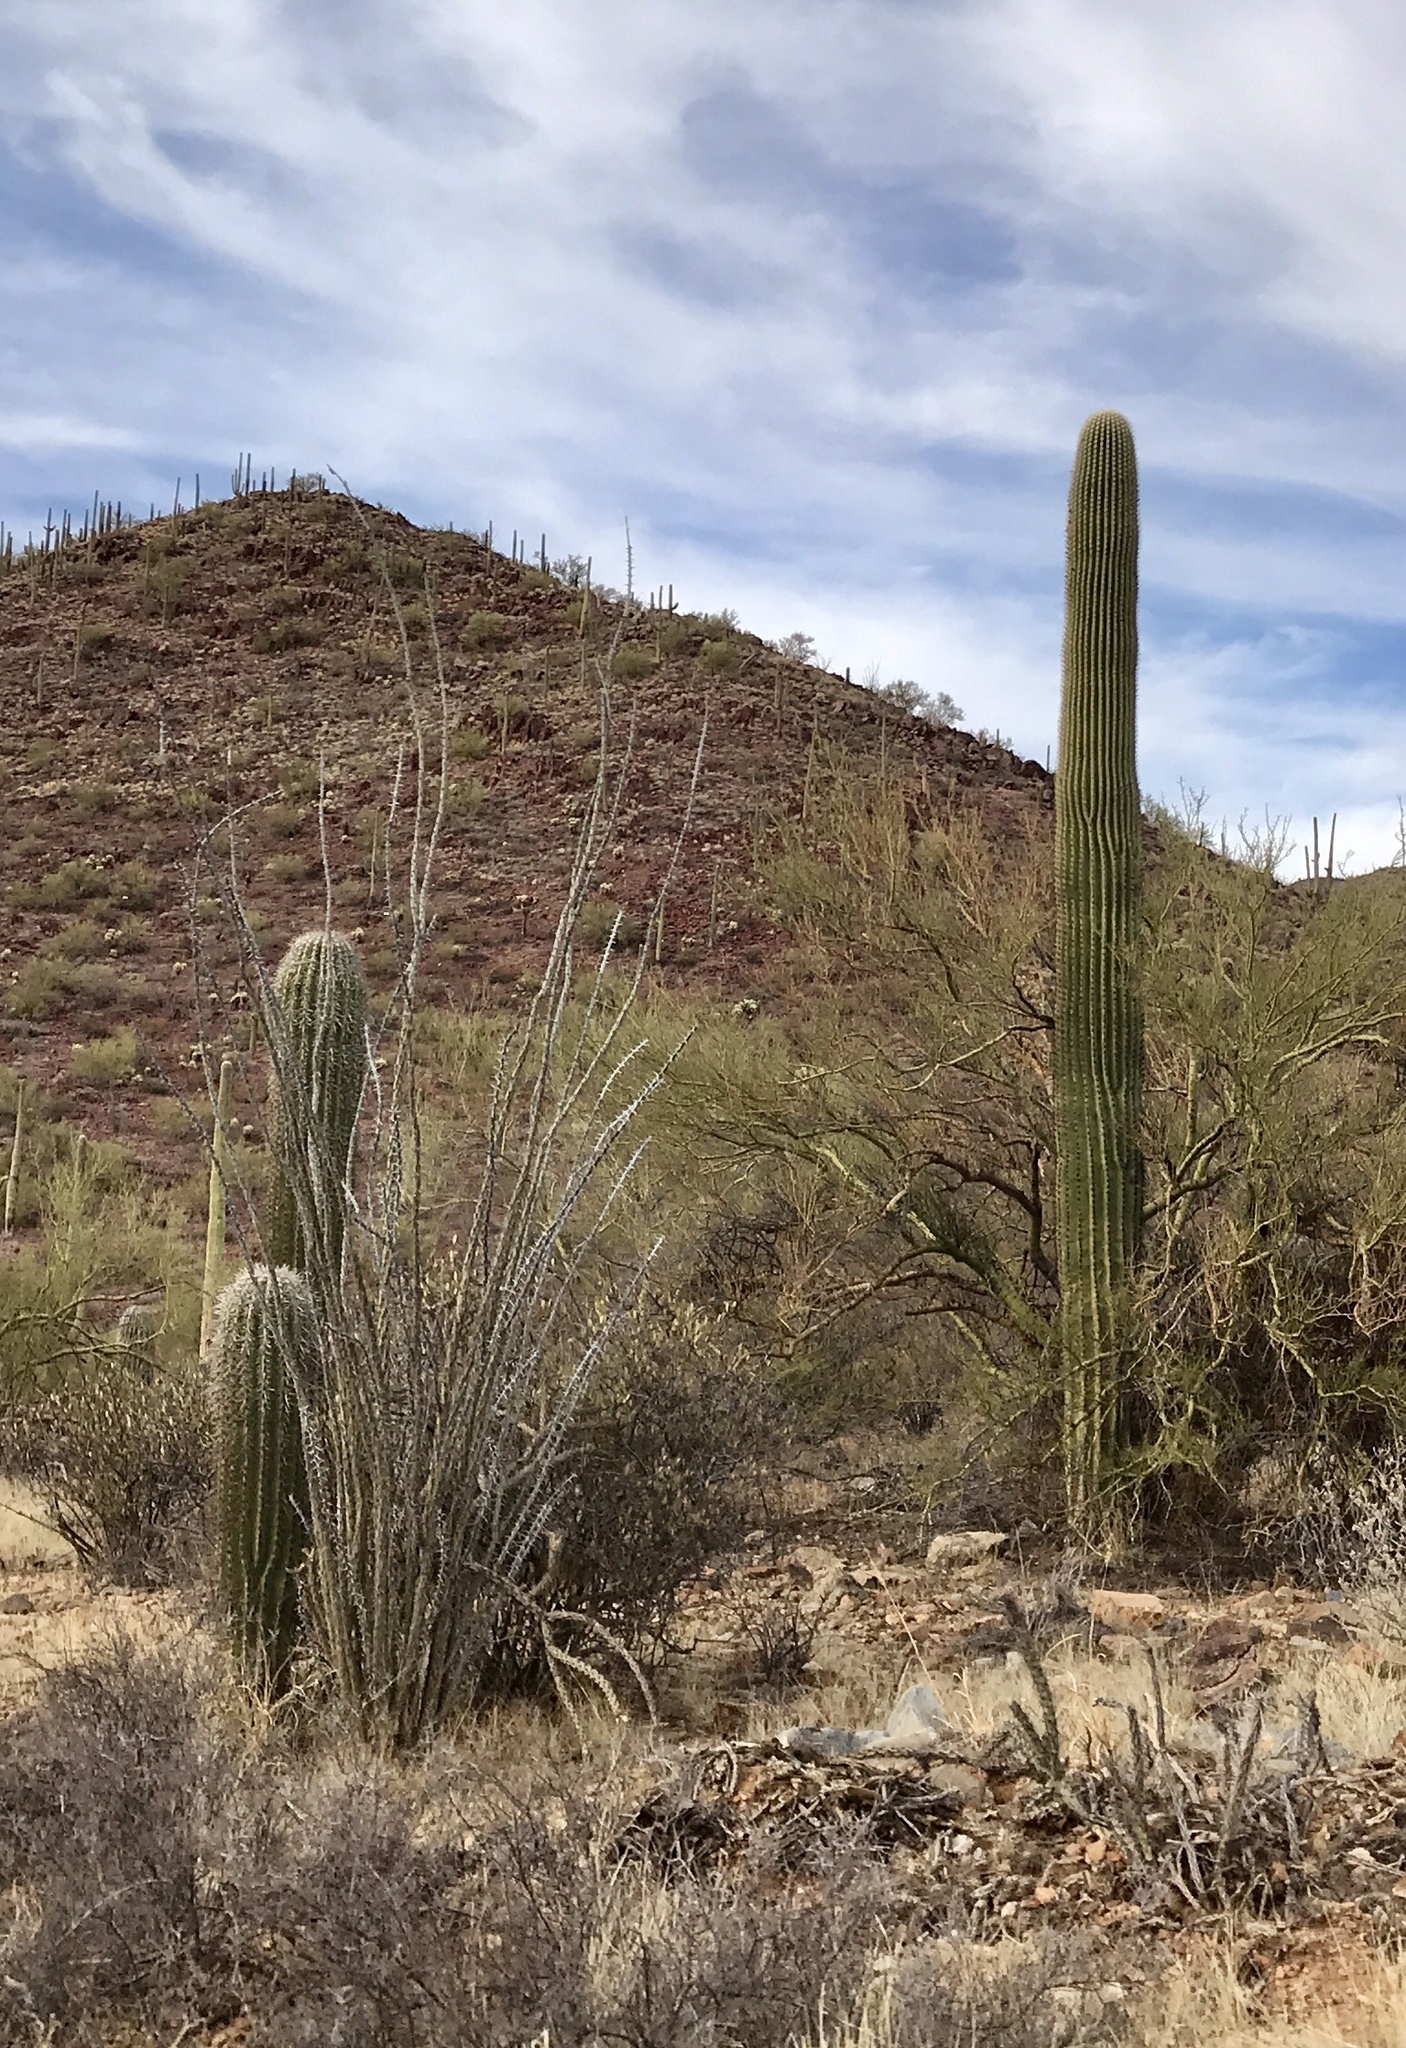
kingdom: Plantae
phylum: Tracheophyta
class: Magnoliopsida
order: Caryophyllales
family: Cactaceae
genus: Carnegiea
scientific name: Carnegiea gigantea
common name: Saguaro
